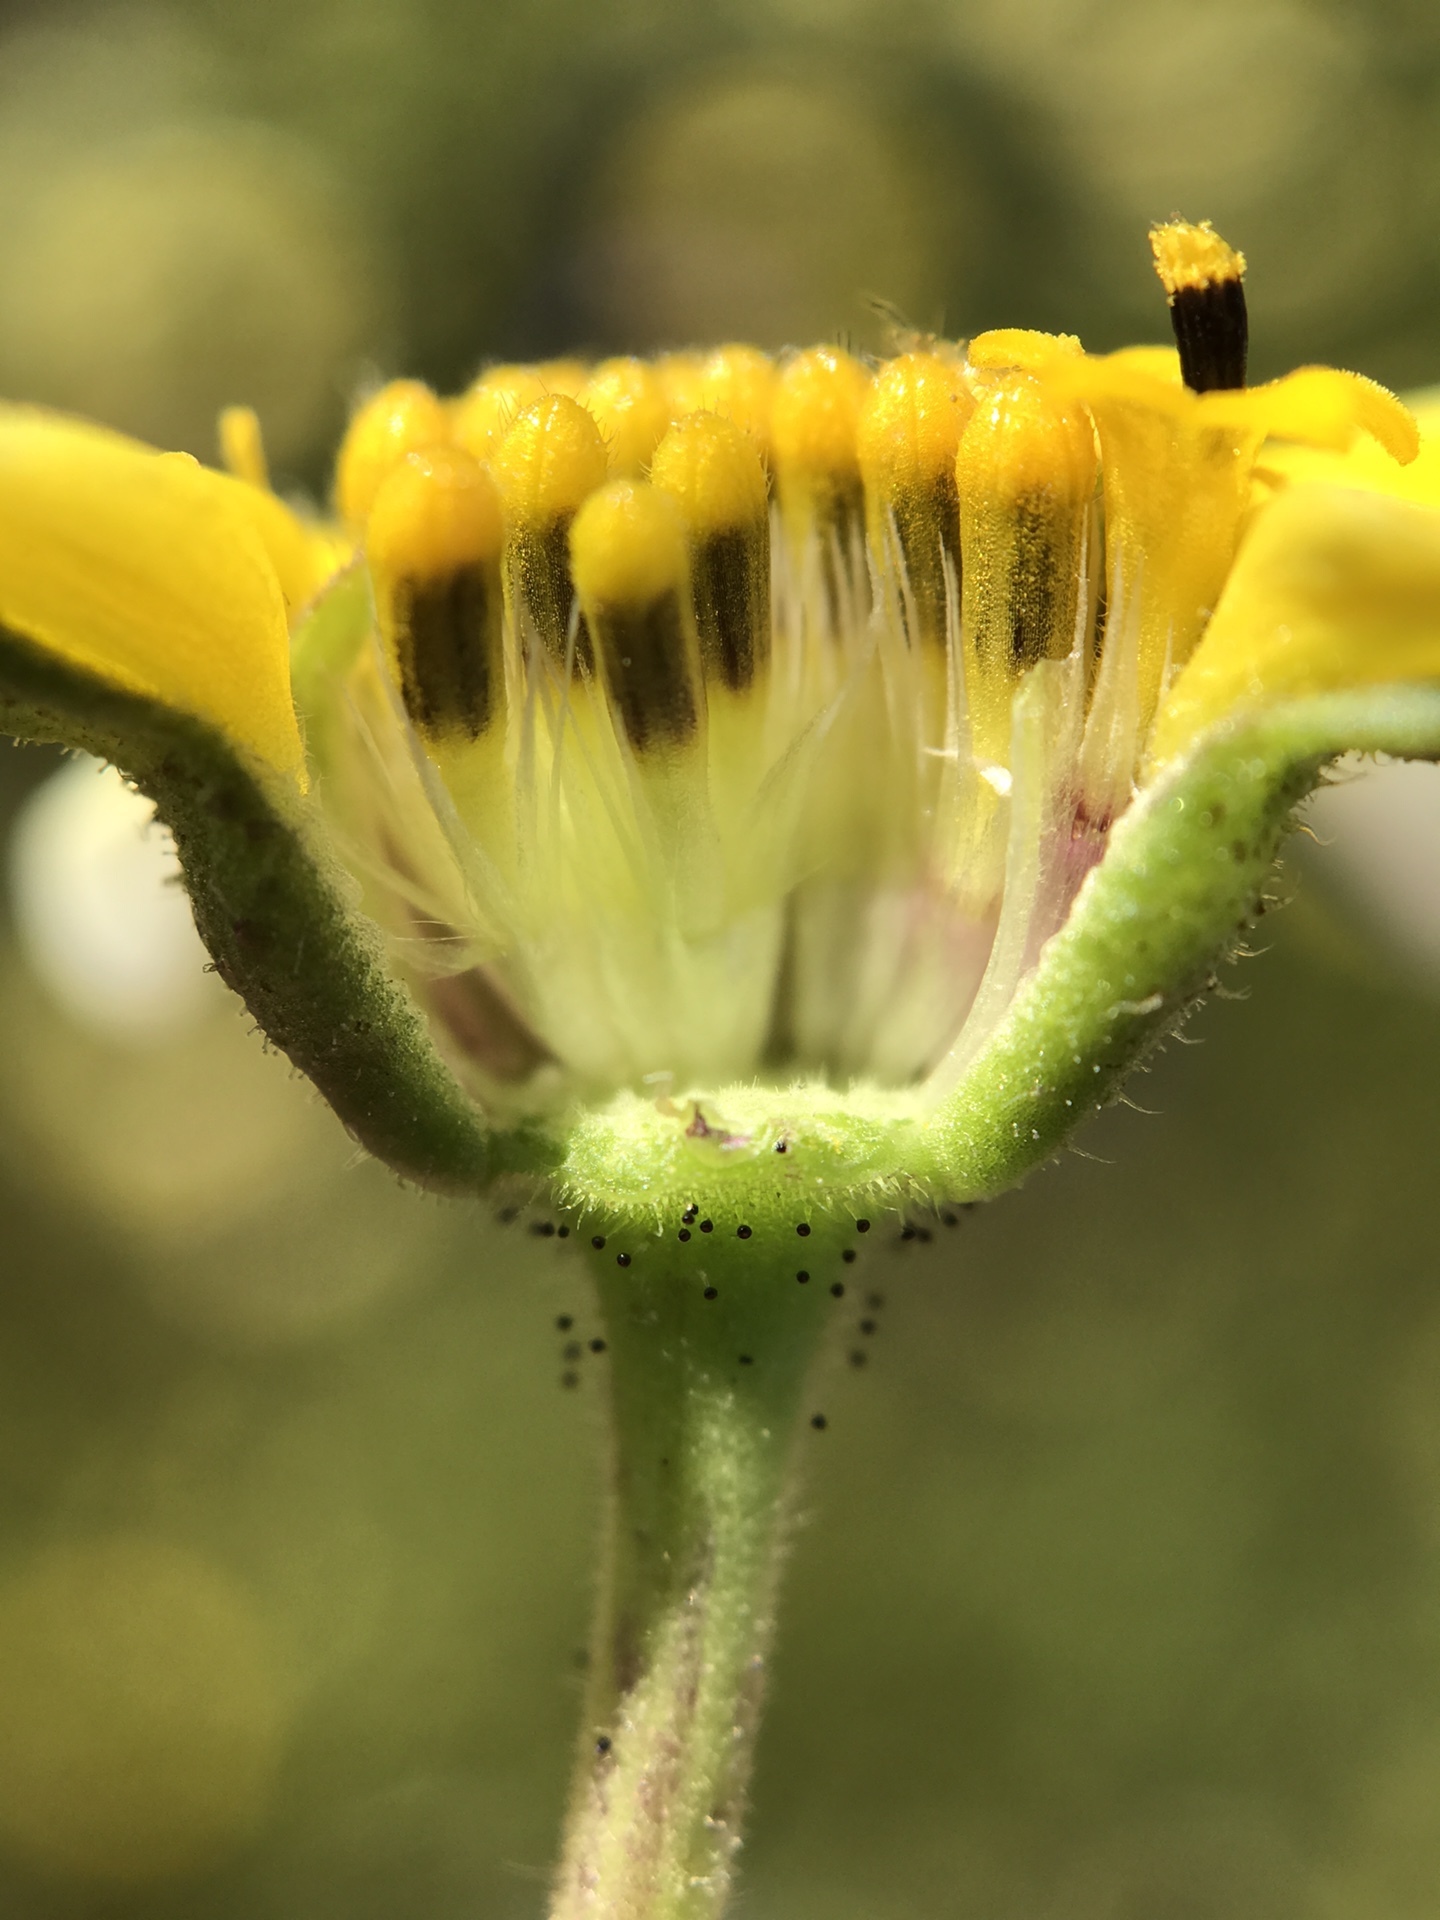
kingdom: Plantae
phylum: Tracheophyta
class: Magnoliopsida
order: Asterales
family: Asteraceae
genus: Layia
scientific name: Layia munzii
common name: Munz's tidy-tips
